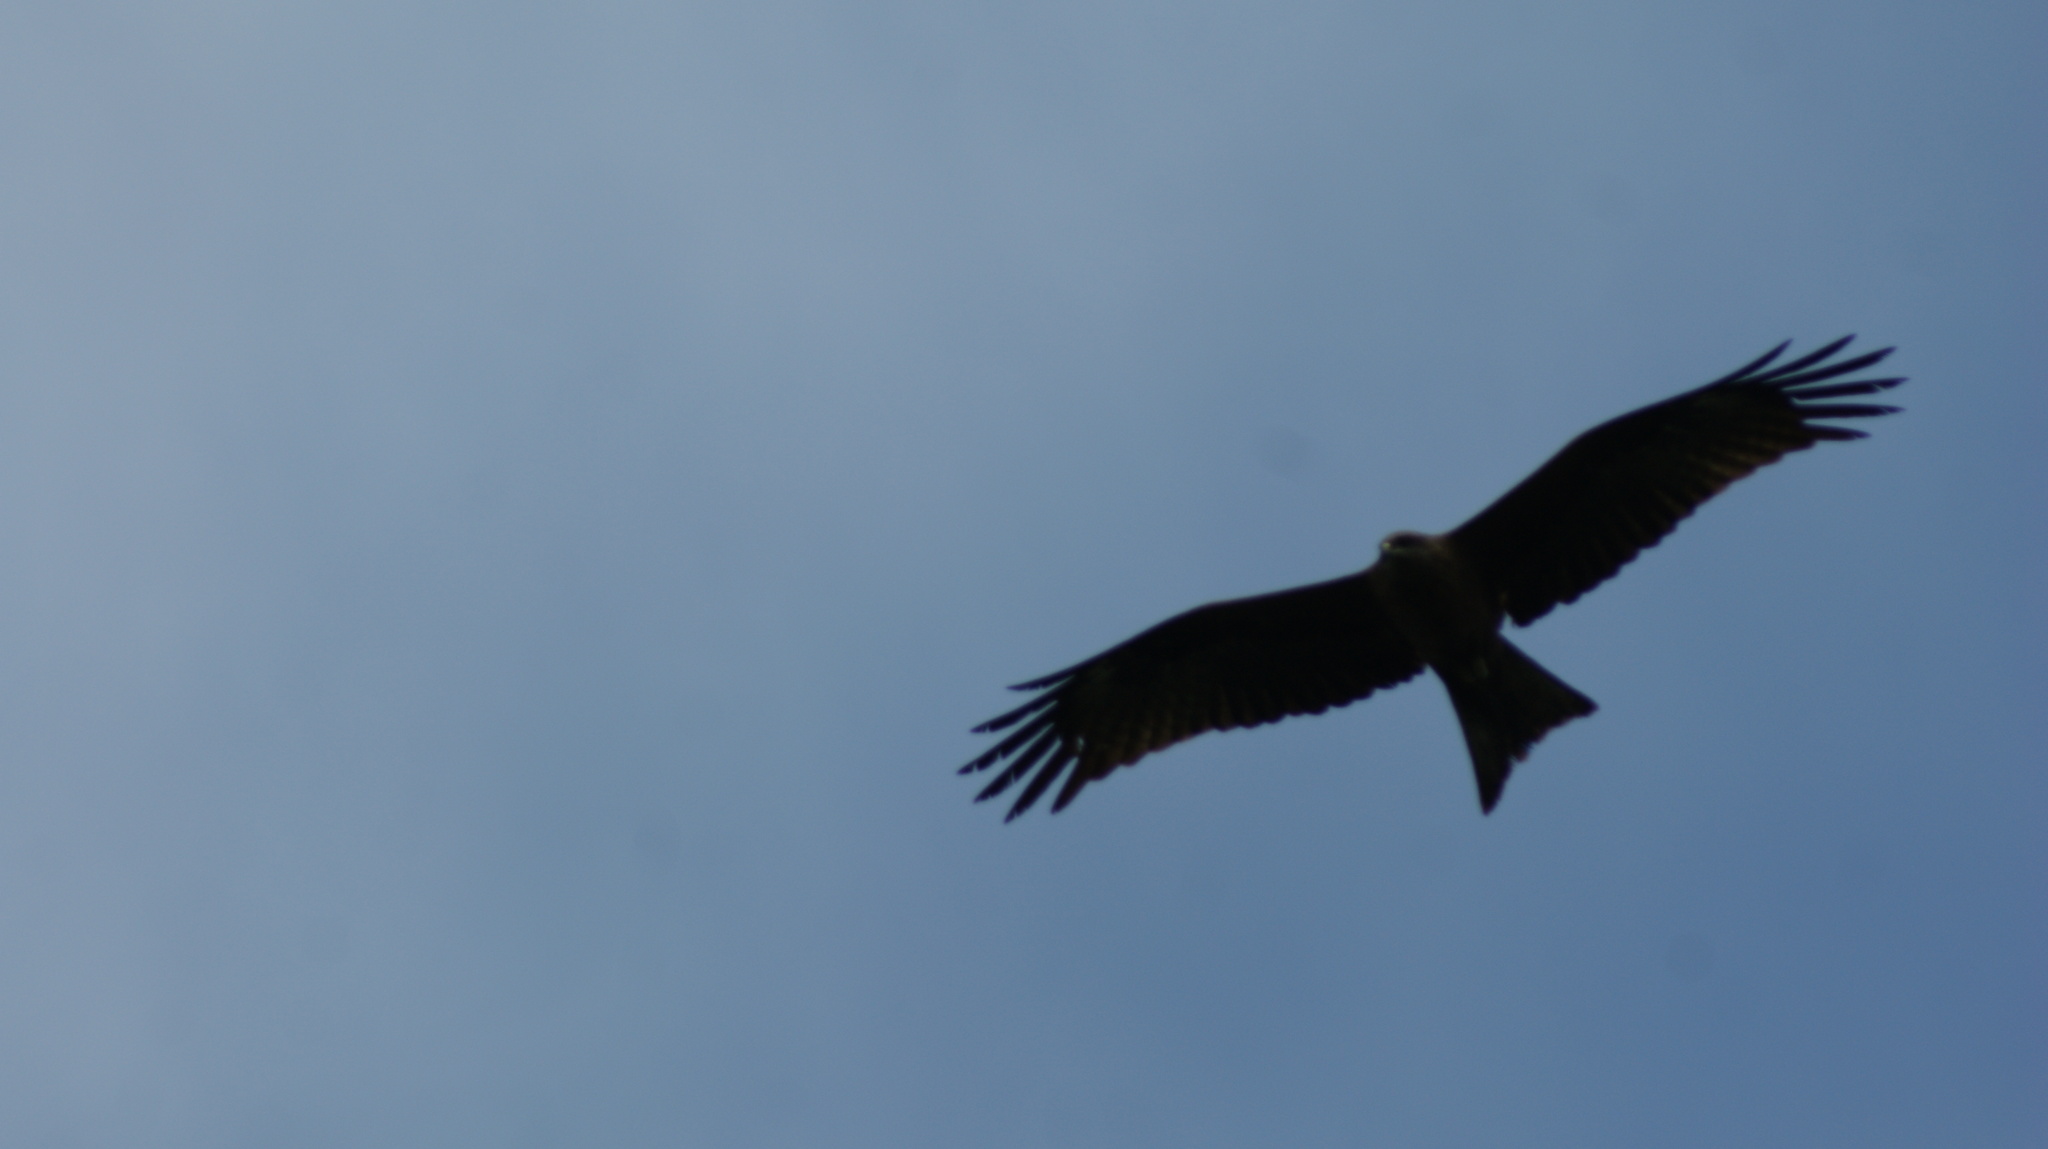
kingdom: Animalia
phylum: Chordata
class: Aves
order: Accipitriformes
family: Accipitridae
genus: Milvus
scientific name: Milvus migrans
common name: Black kite
